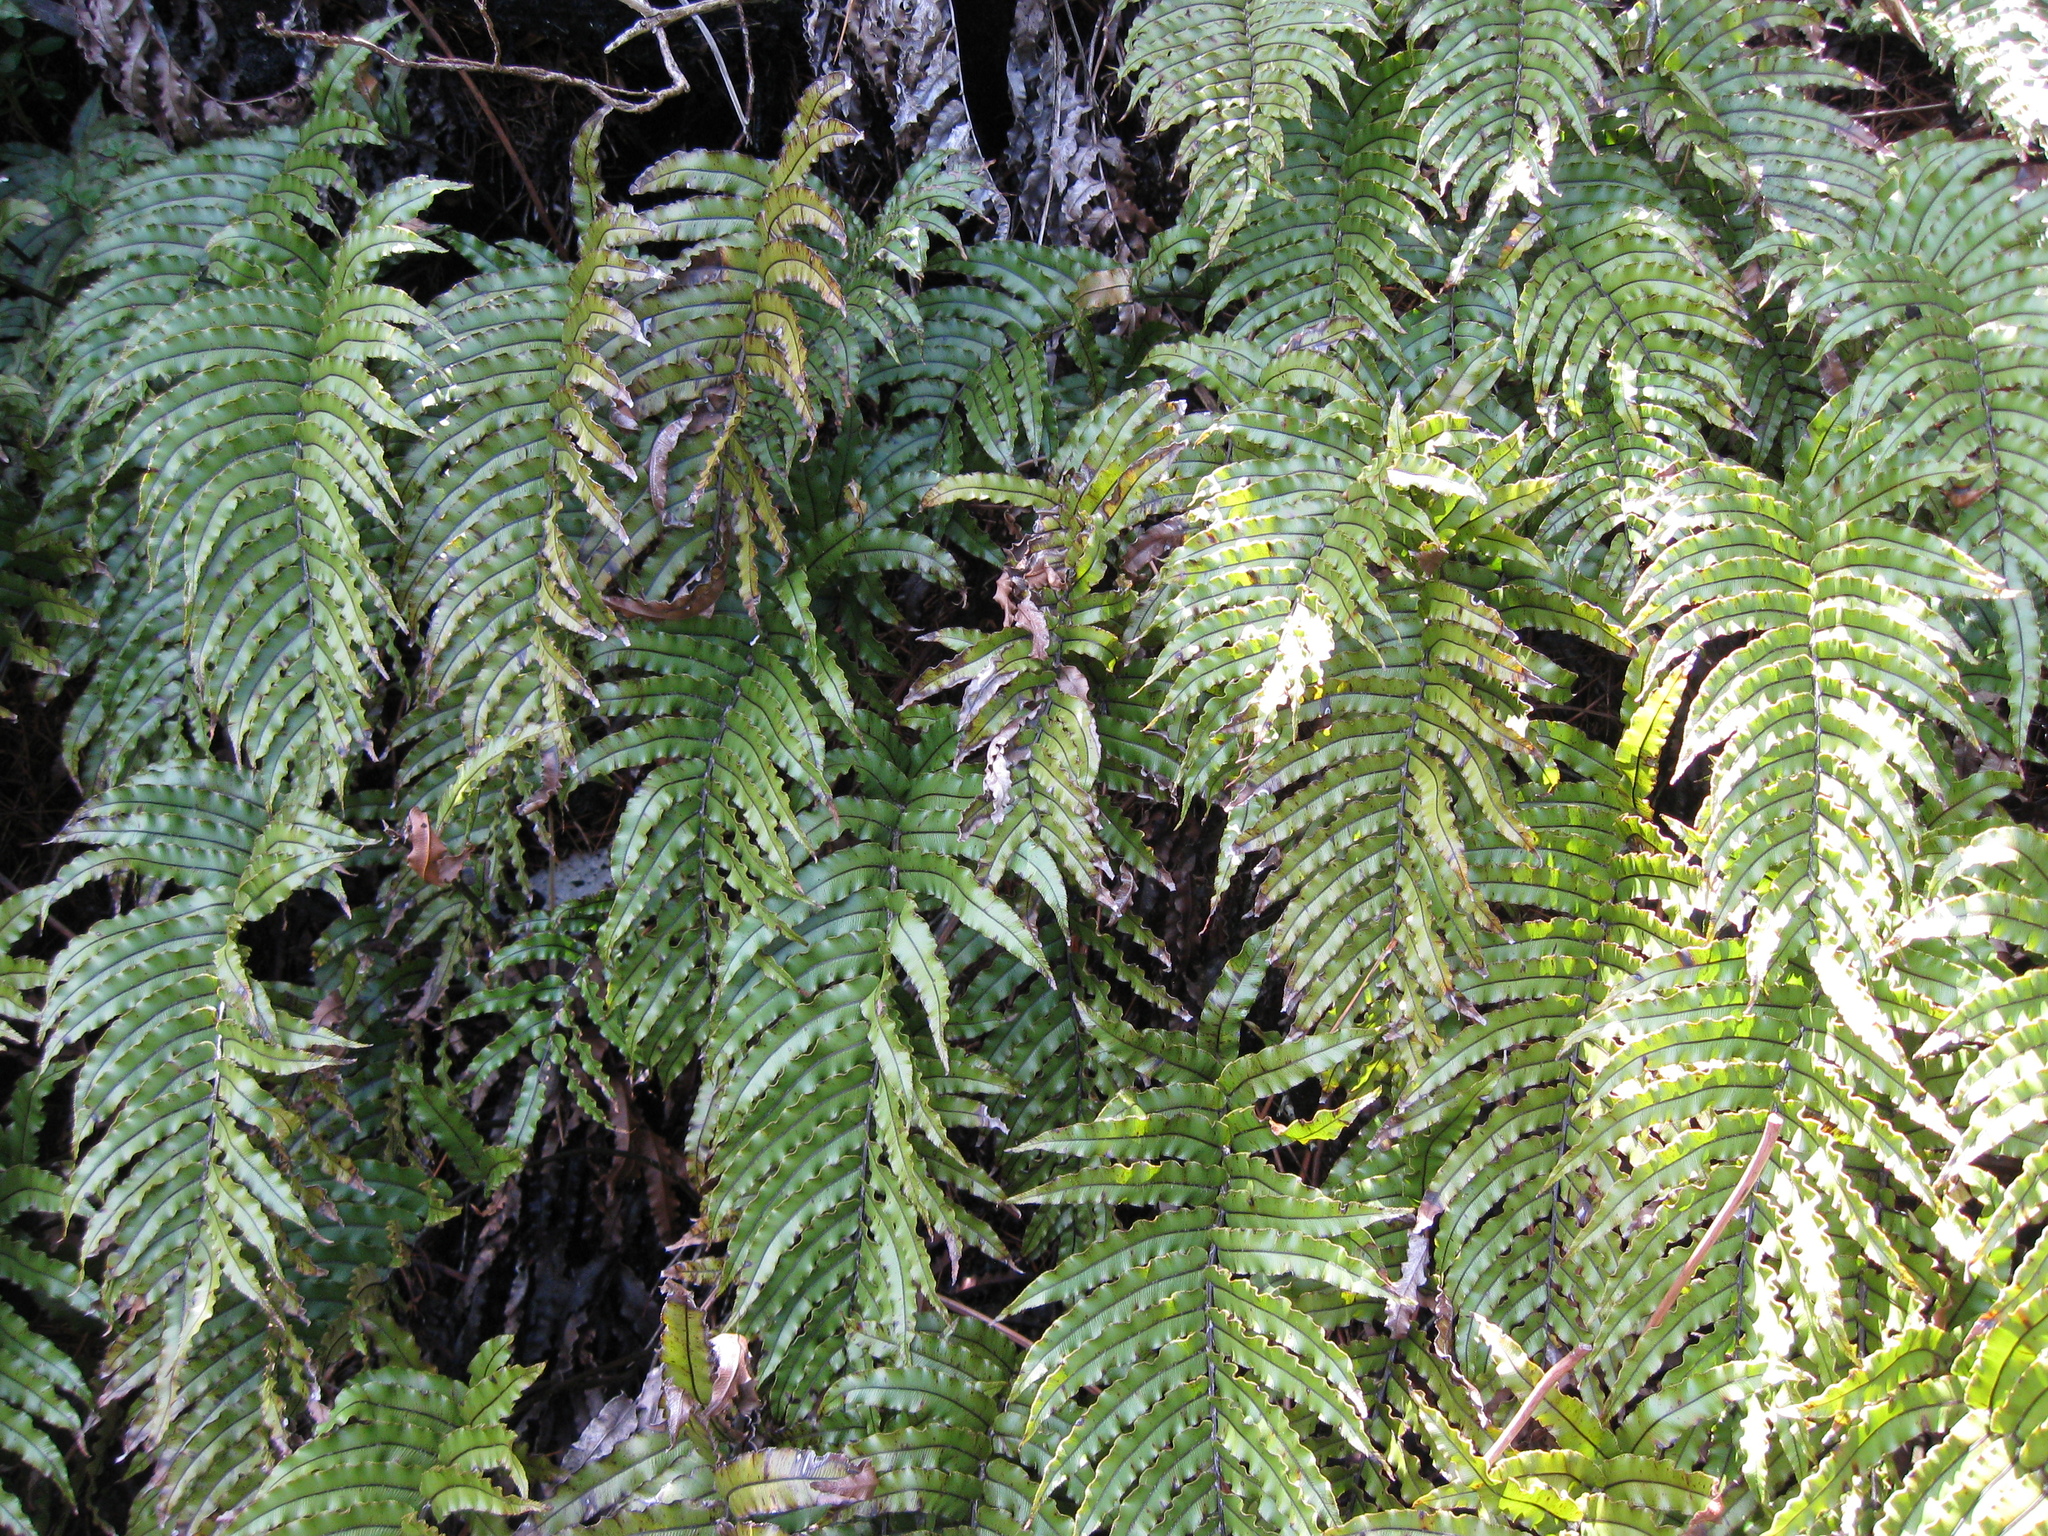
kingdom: Plantae
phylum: Tracheophyta
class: Polypodiopsida
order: Polypodiales
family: Blechnaceae
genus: Parablechnum
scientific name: Parablechnum montanum
